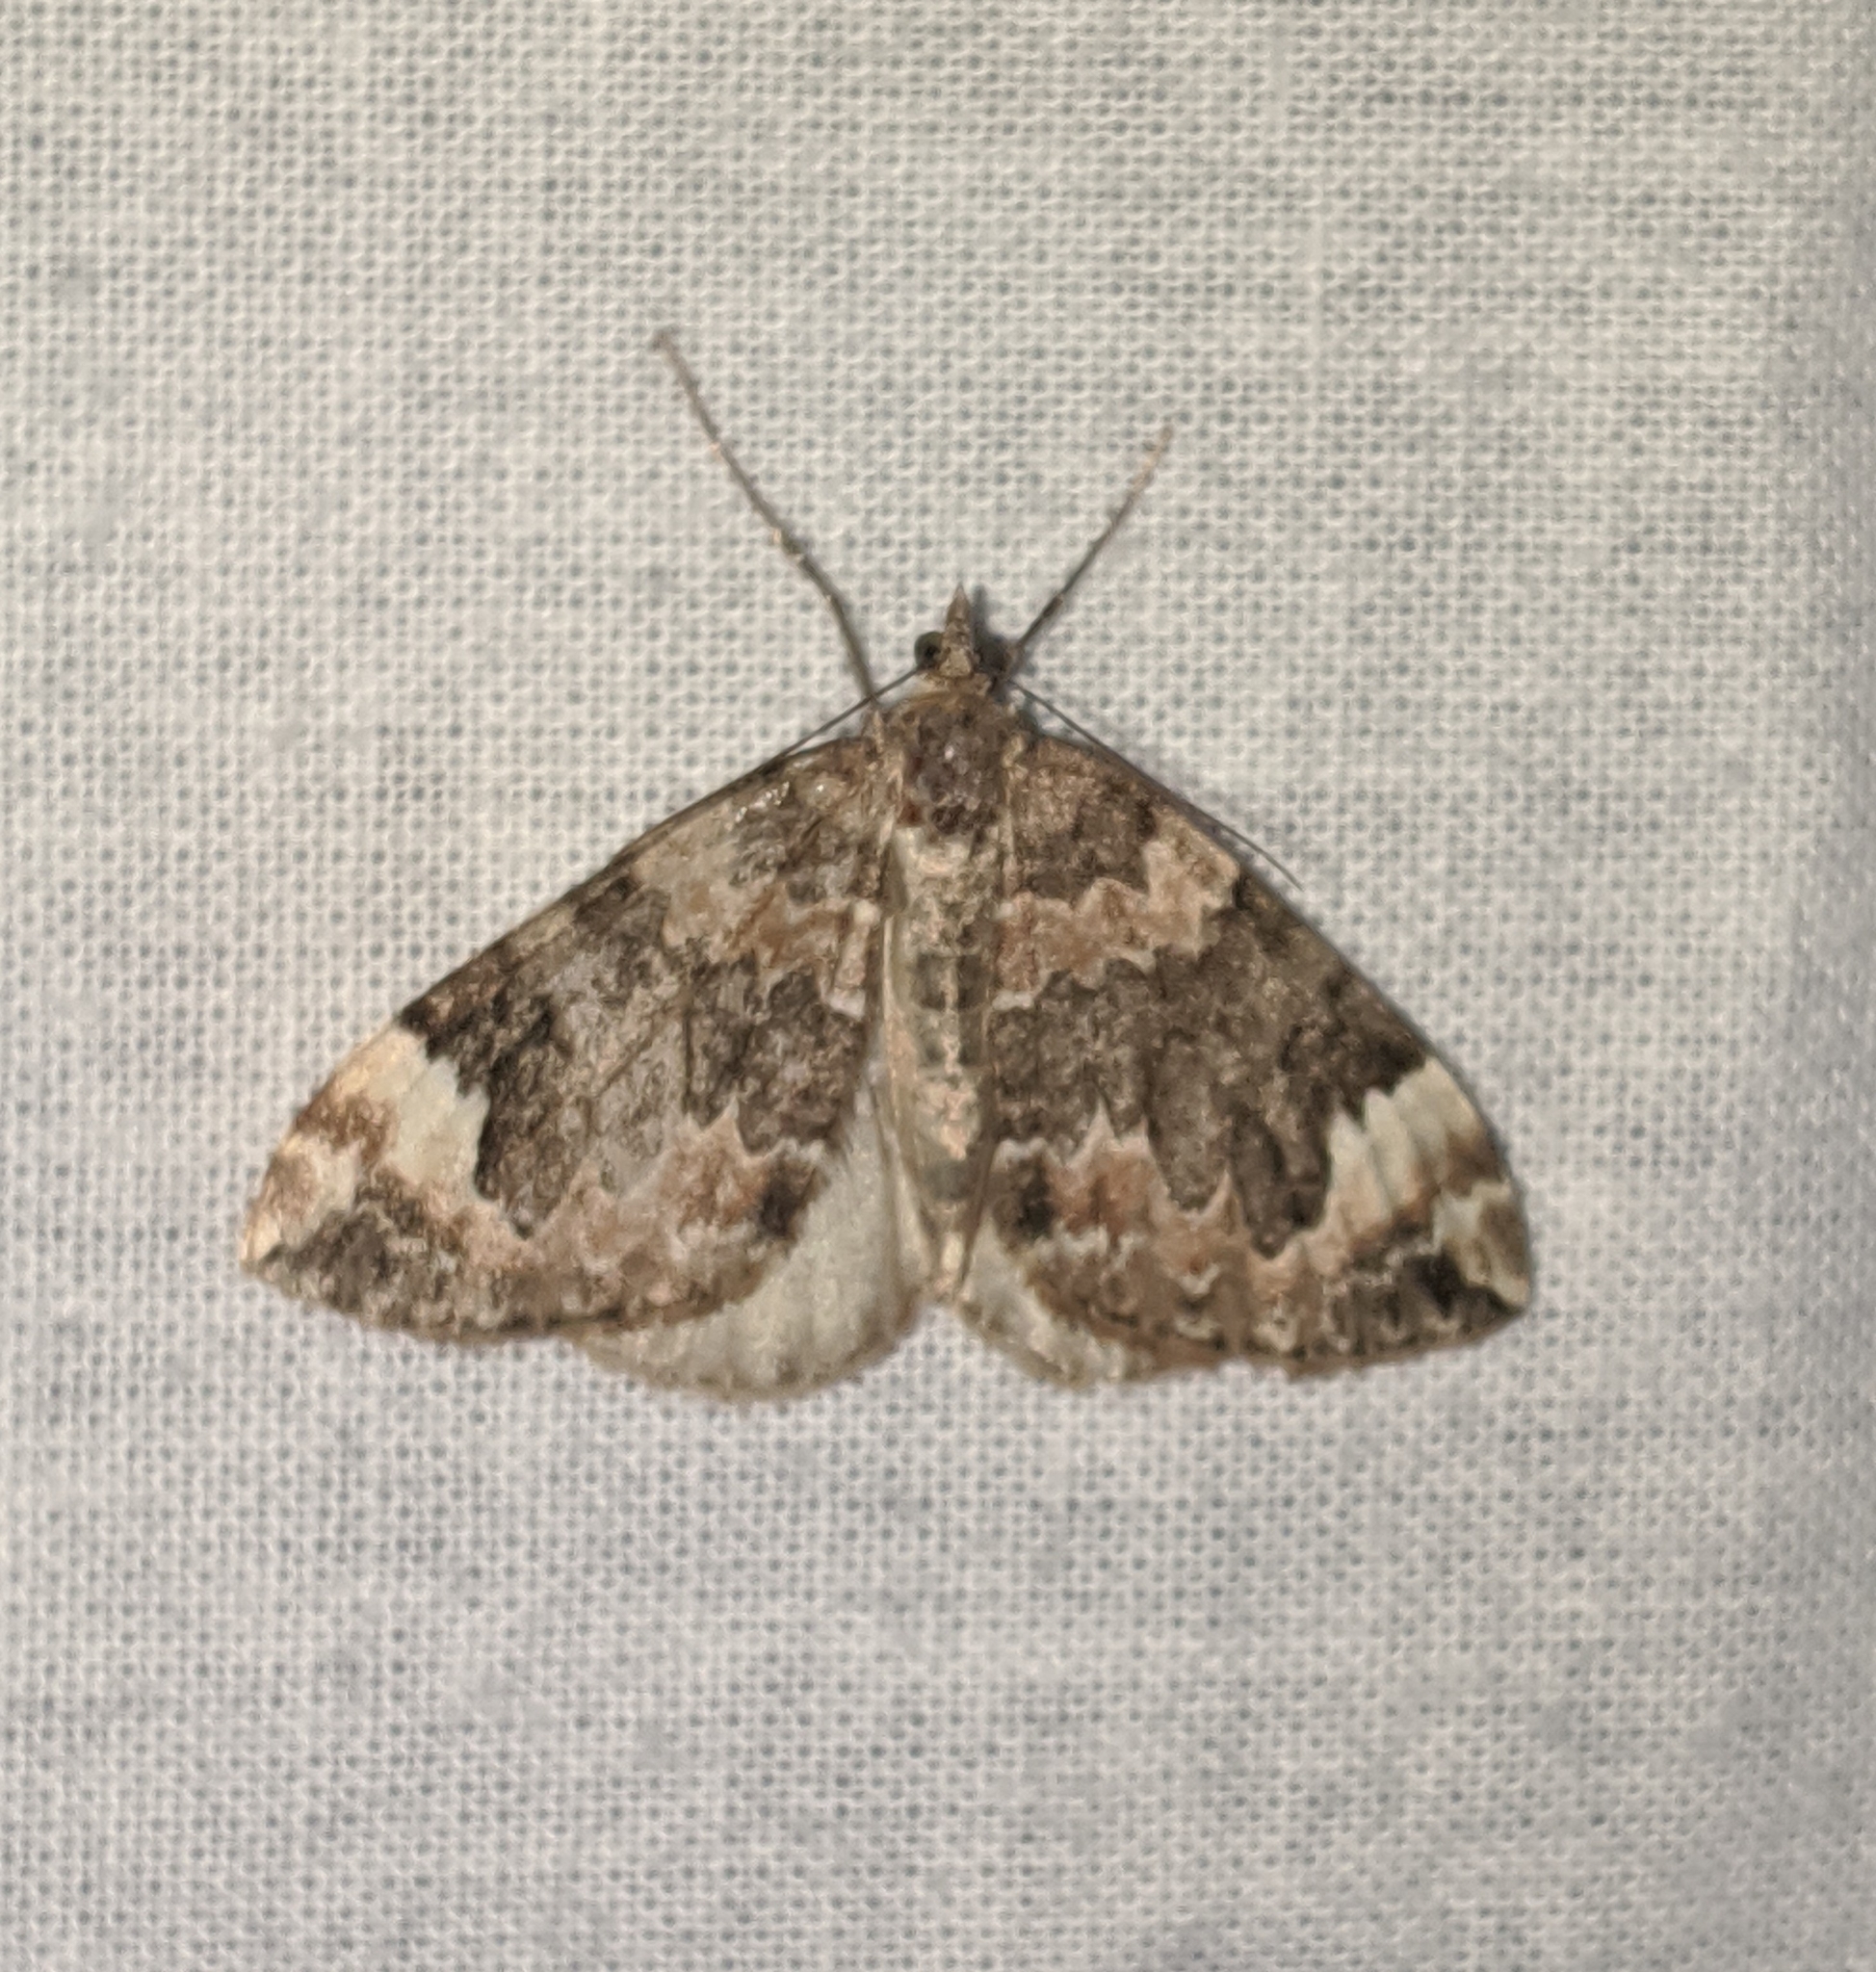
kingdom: Animalia
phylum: Arthropoda
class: Insecta
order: Lepidoptera
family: Geometridae
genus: Dysstroma
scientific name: Dysstroma citrata
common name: Dark marbled carpet
